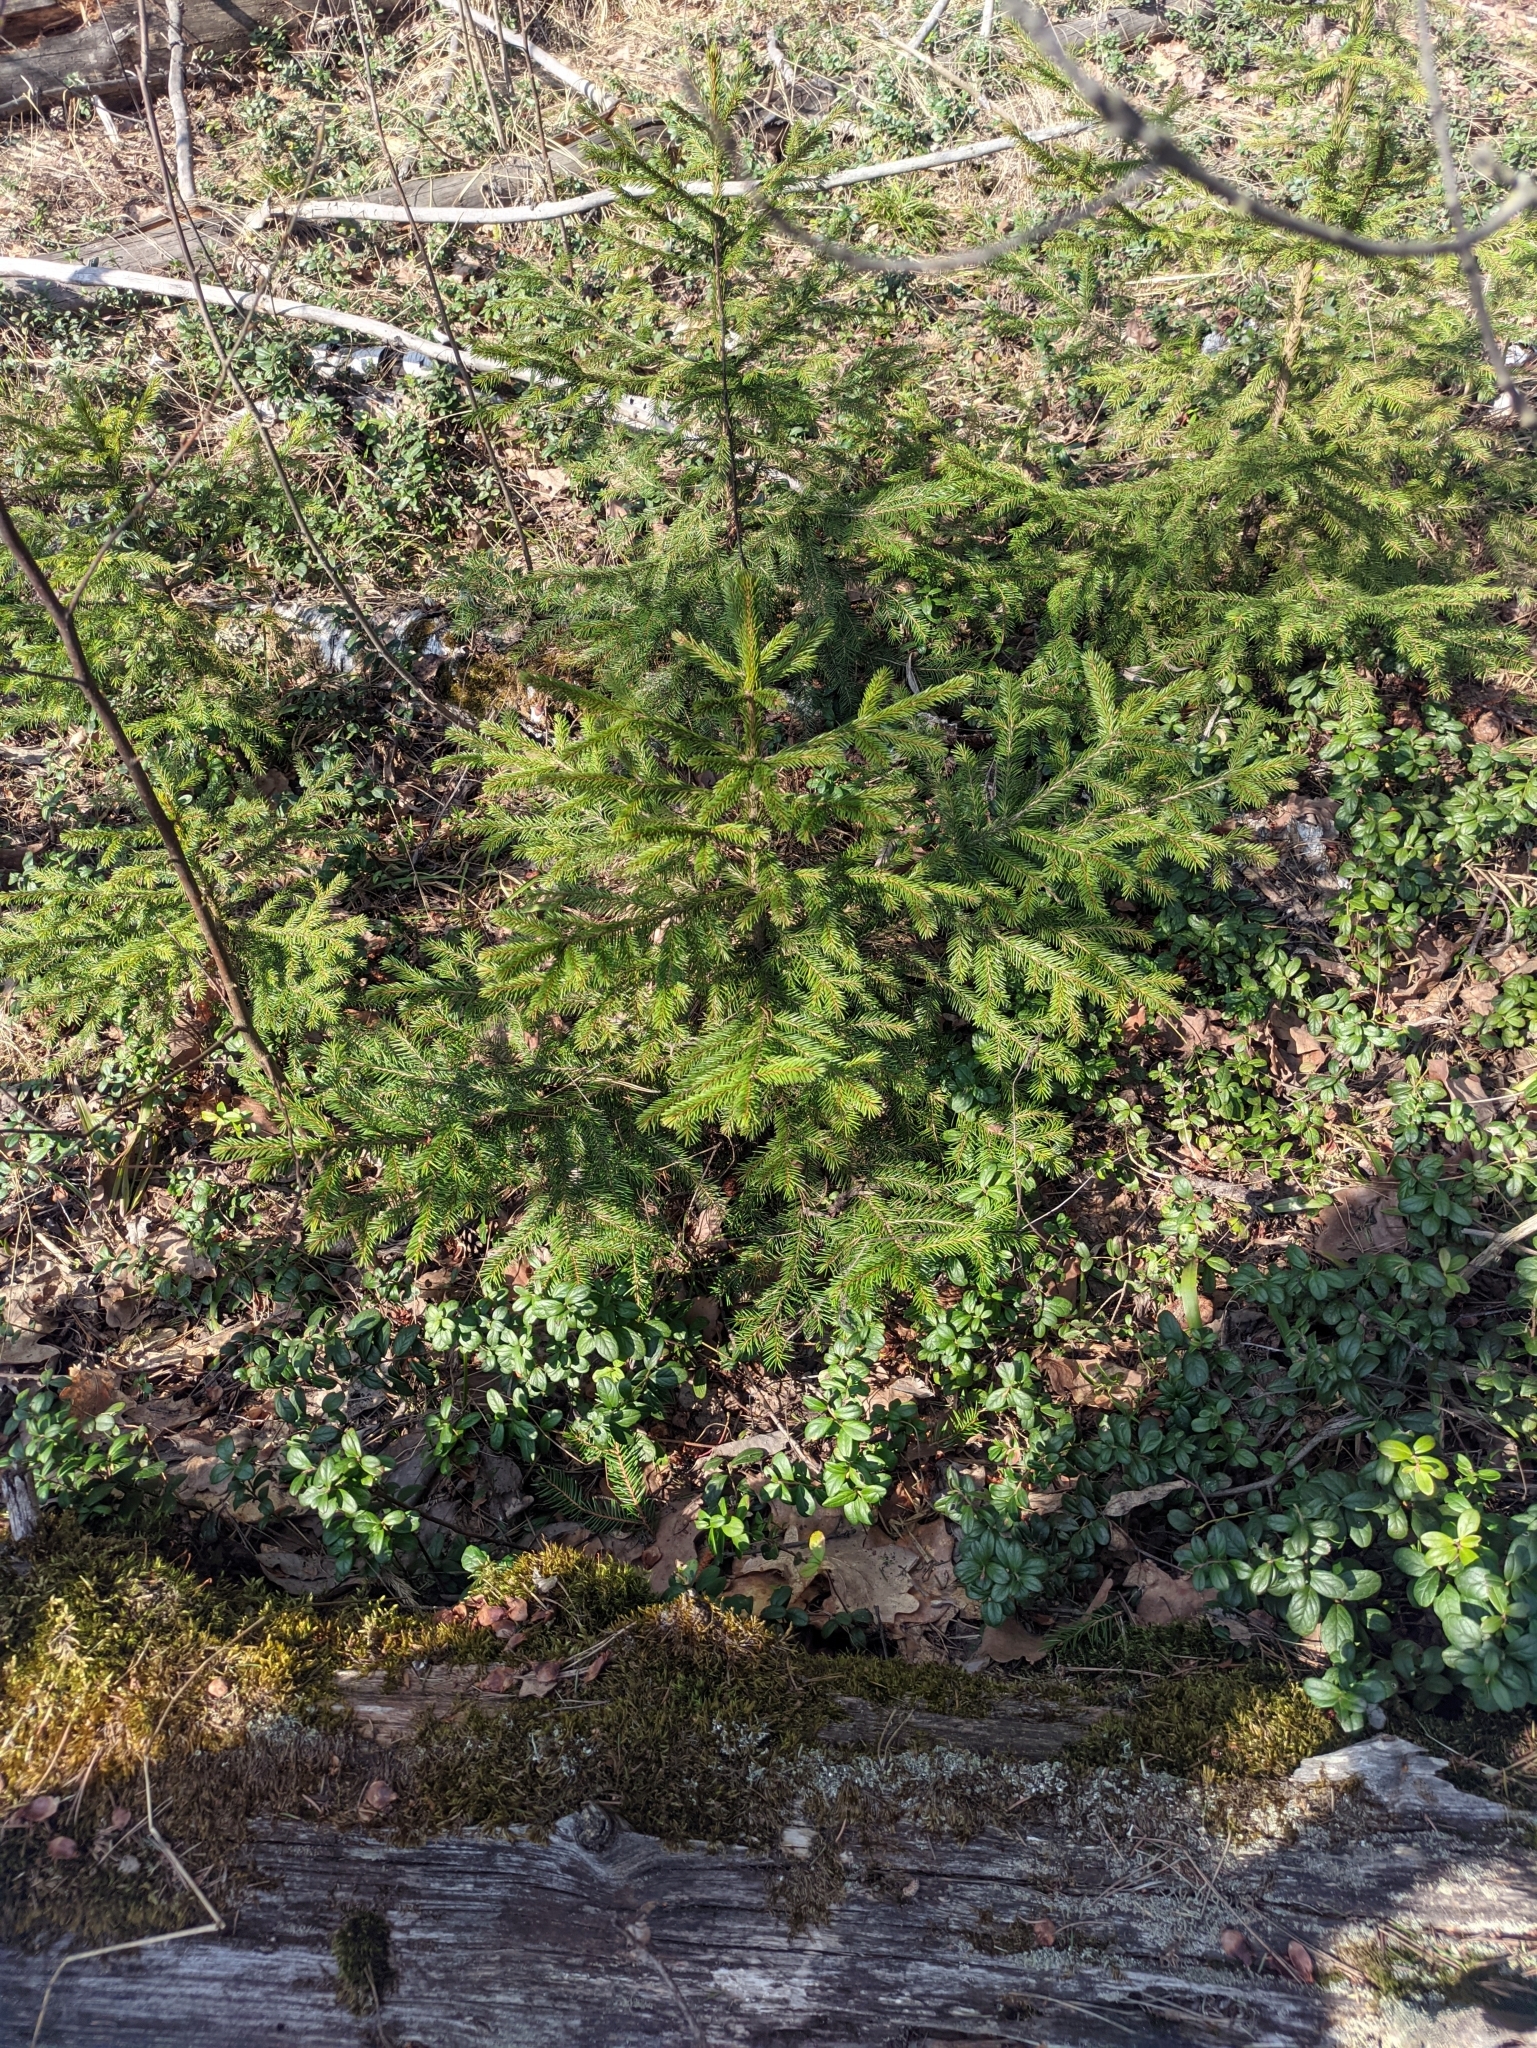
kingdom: Plantae
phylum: Tracheophyta
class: Pinopsida
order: Pinales
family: Pinaceae
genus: Picea
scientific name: Picea abies
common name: Norway spruce
